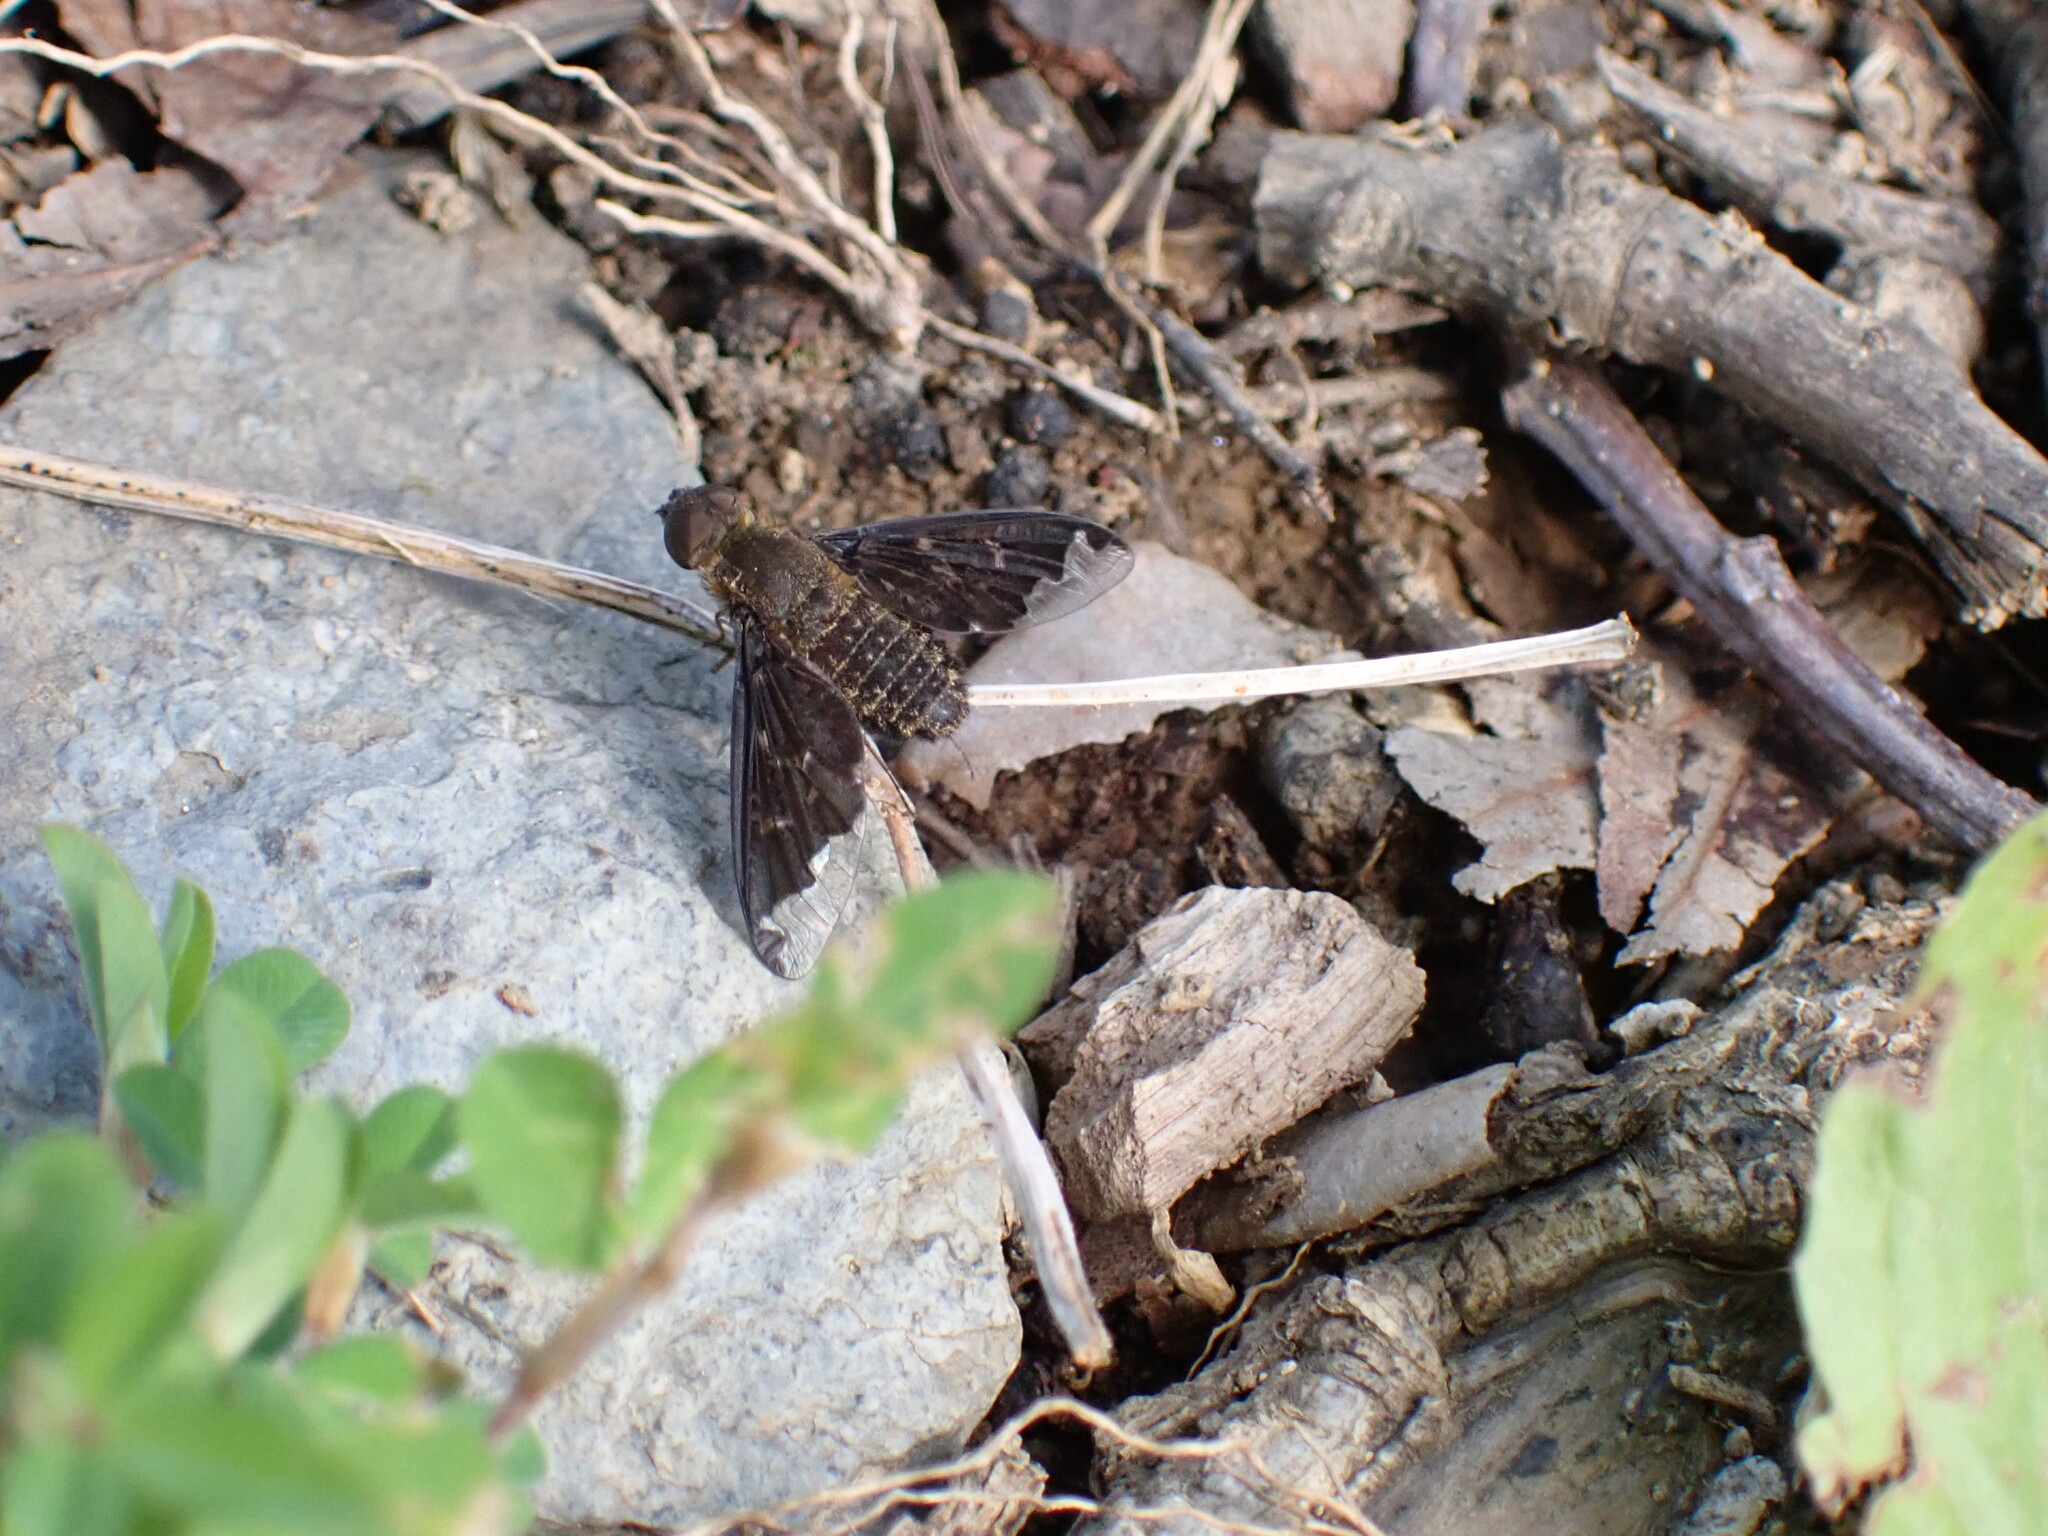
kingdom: Animalia
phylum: Arthropoda
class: Insecta
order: Diptera
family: Bombyliidae
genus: Hemipenthes
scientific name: Hemipenthes sinuosus
